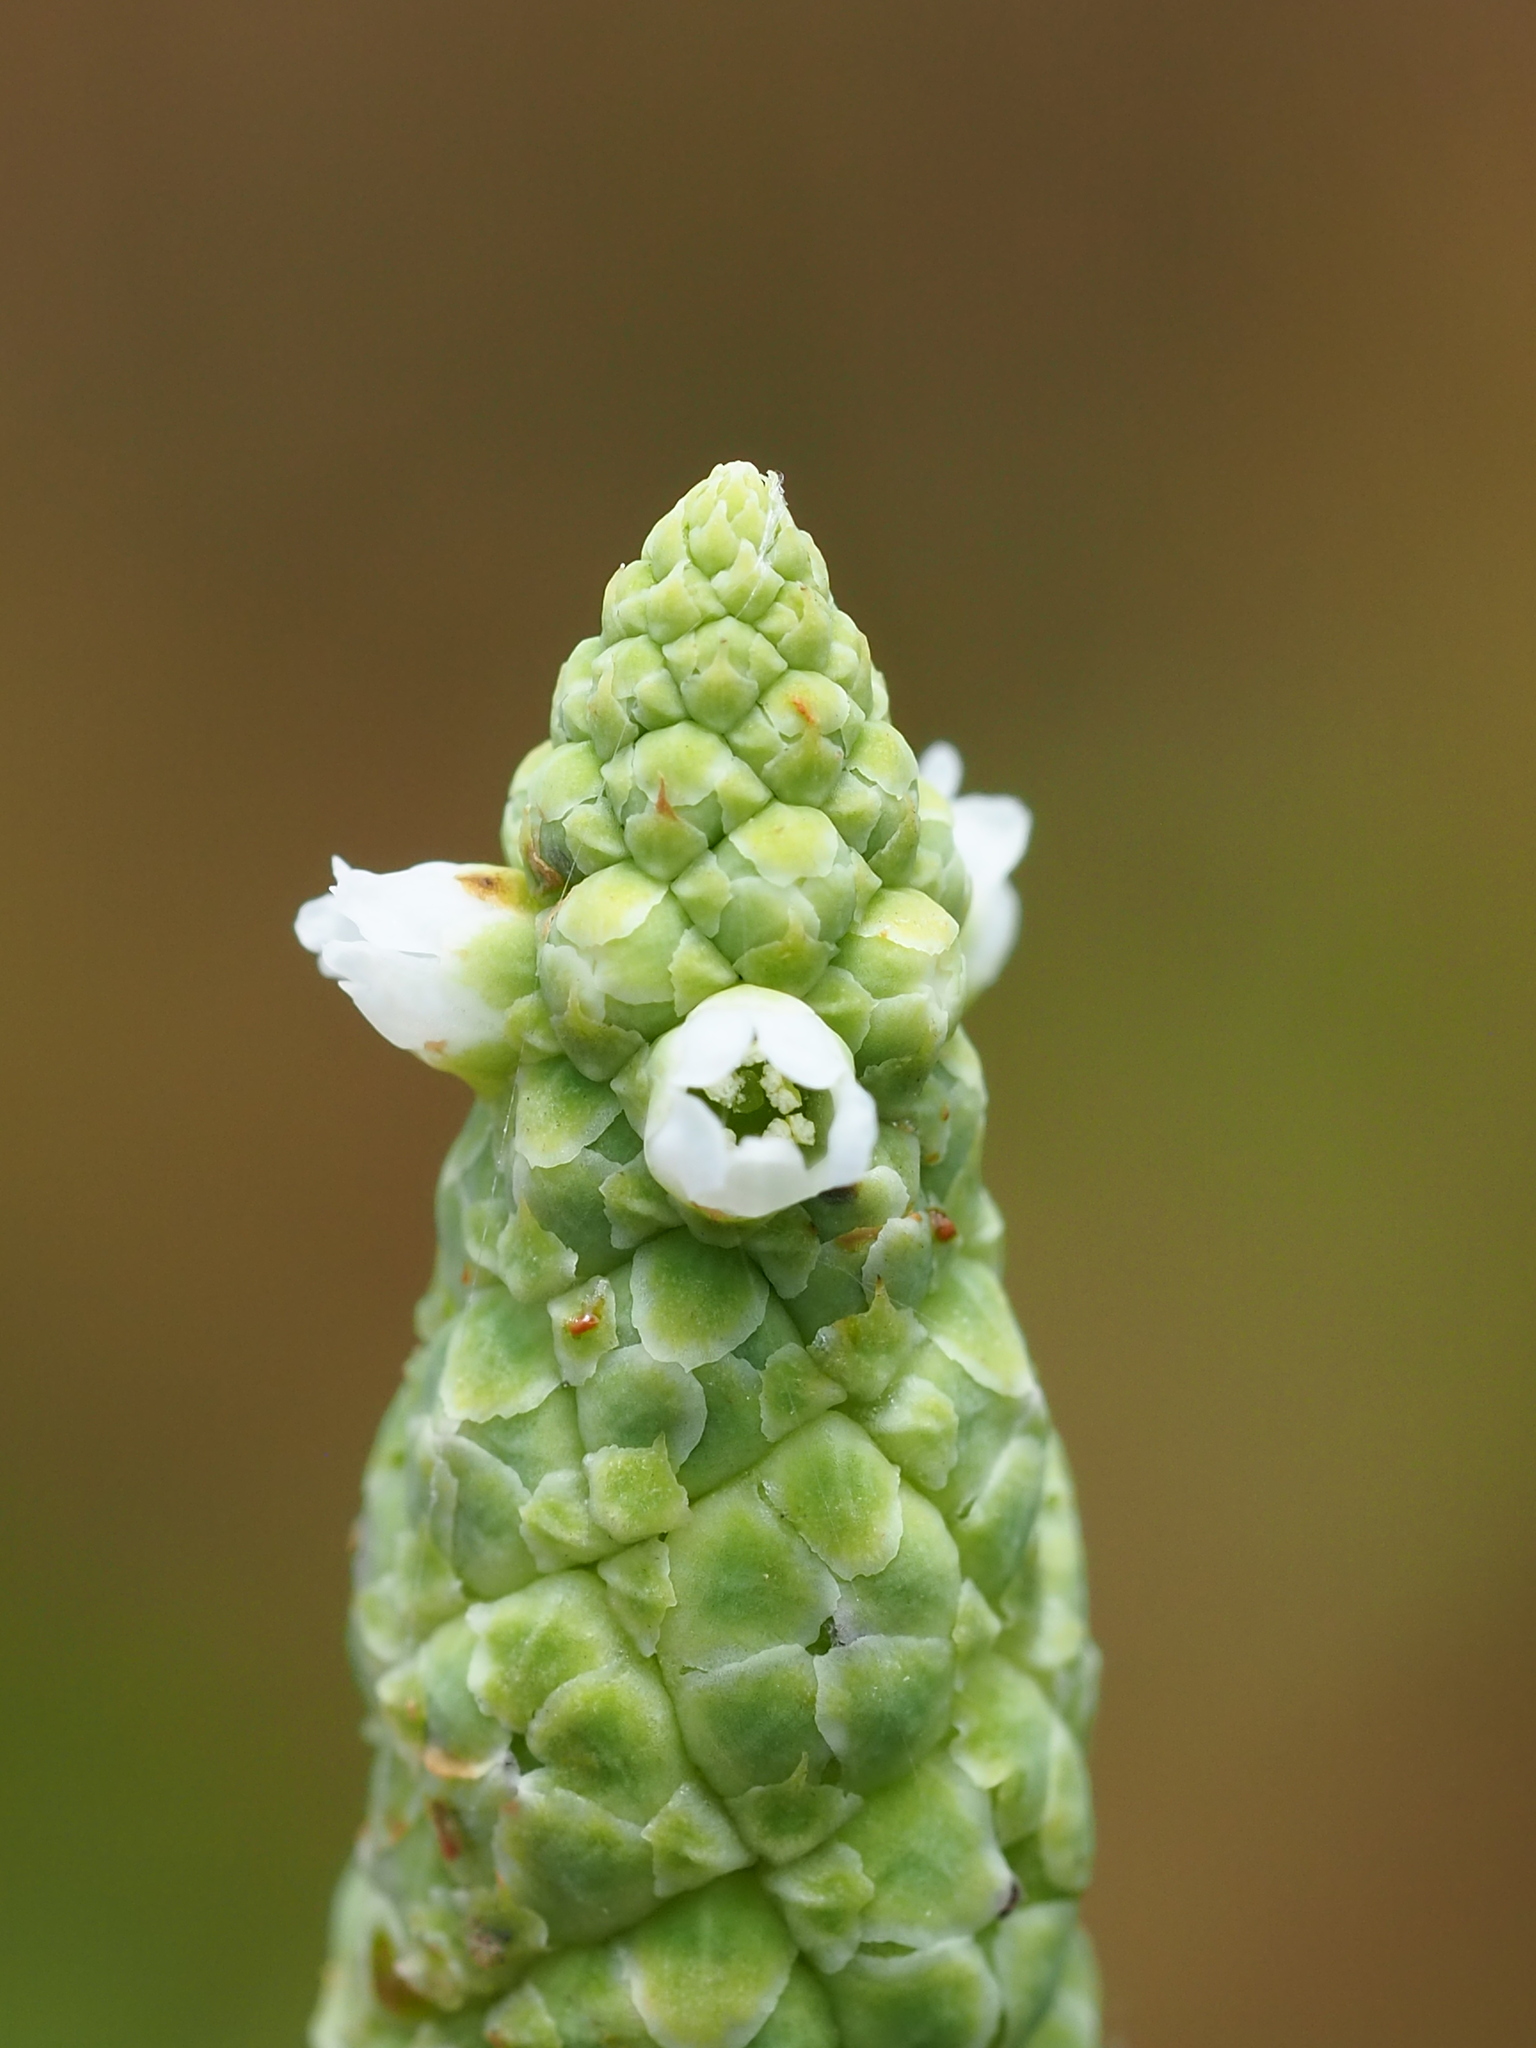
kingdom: Plantae
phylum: Tracheophyta
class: Magnoliopsida
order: Solanales
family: Sphenocleaceae
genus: Sphenoclea
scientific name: Sphenoclea zeylanica
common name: Chickenspike
